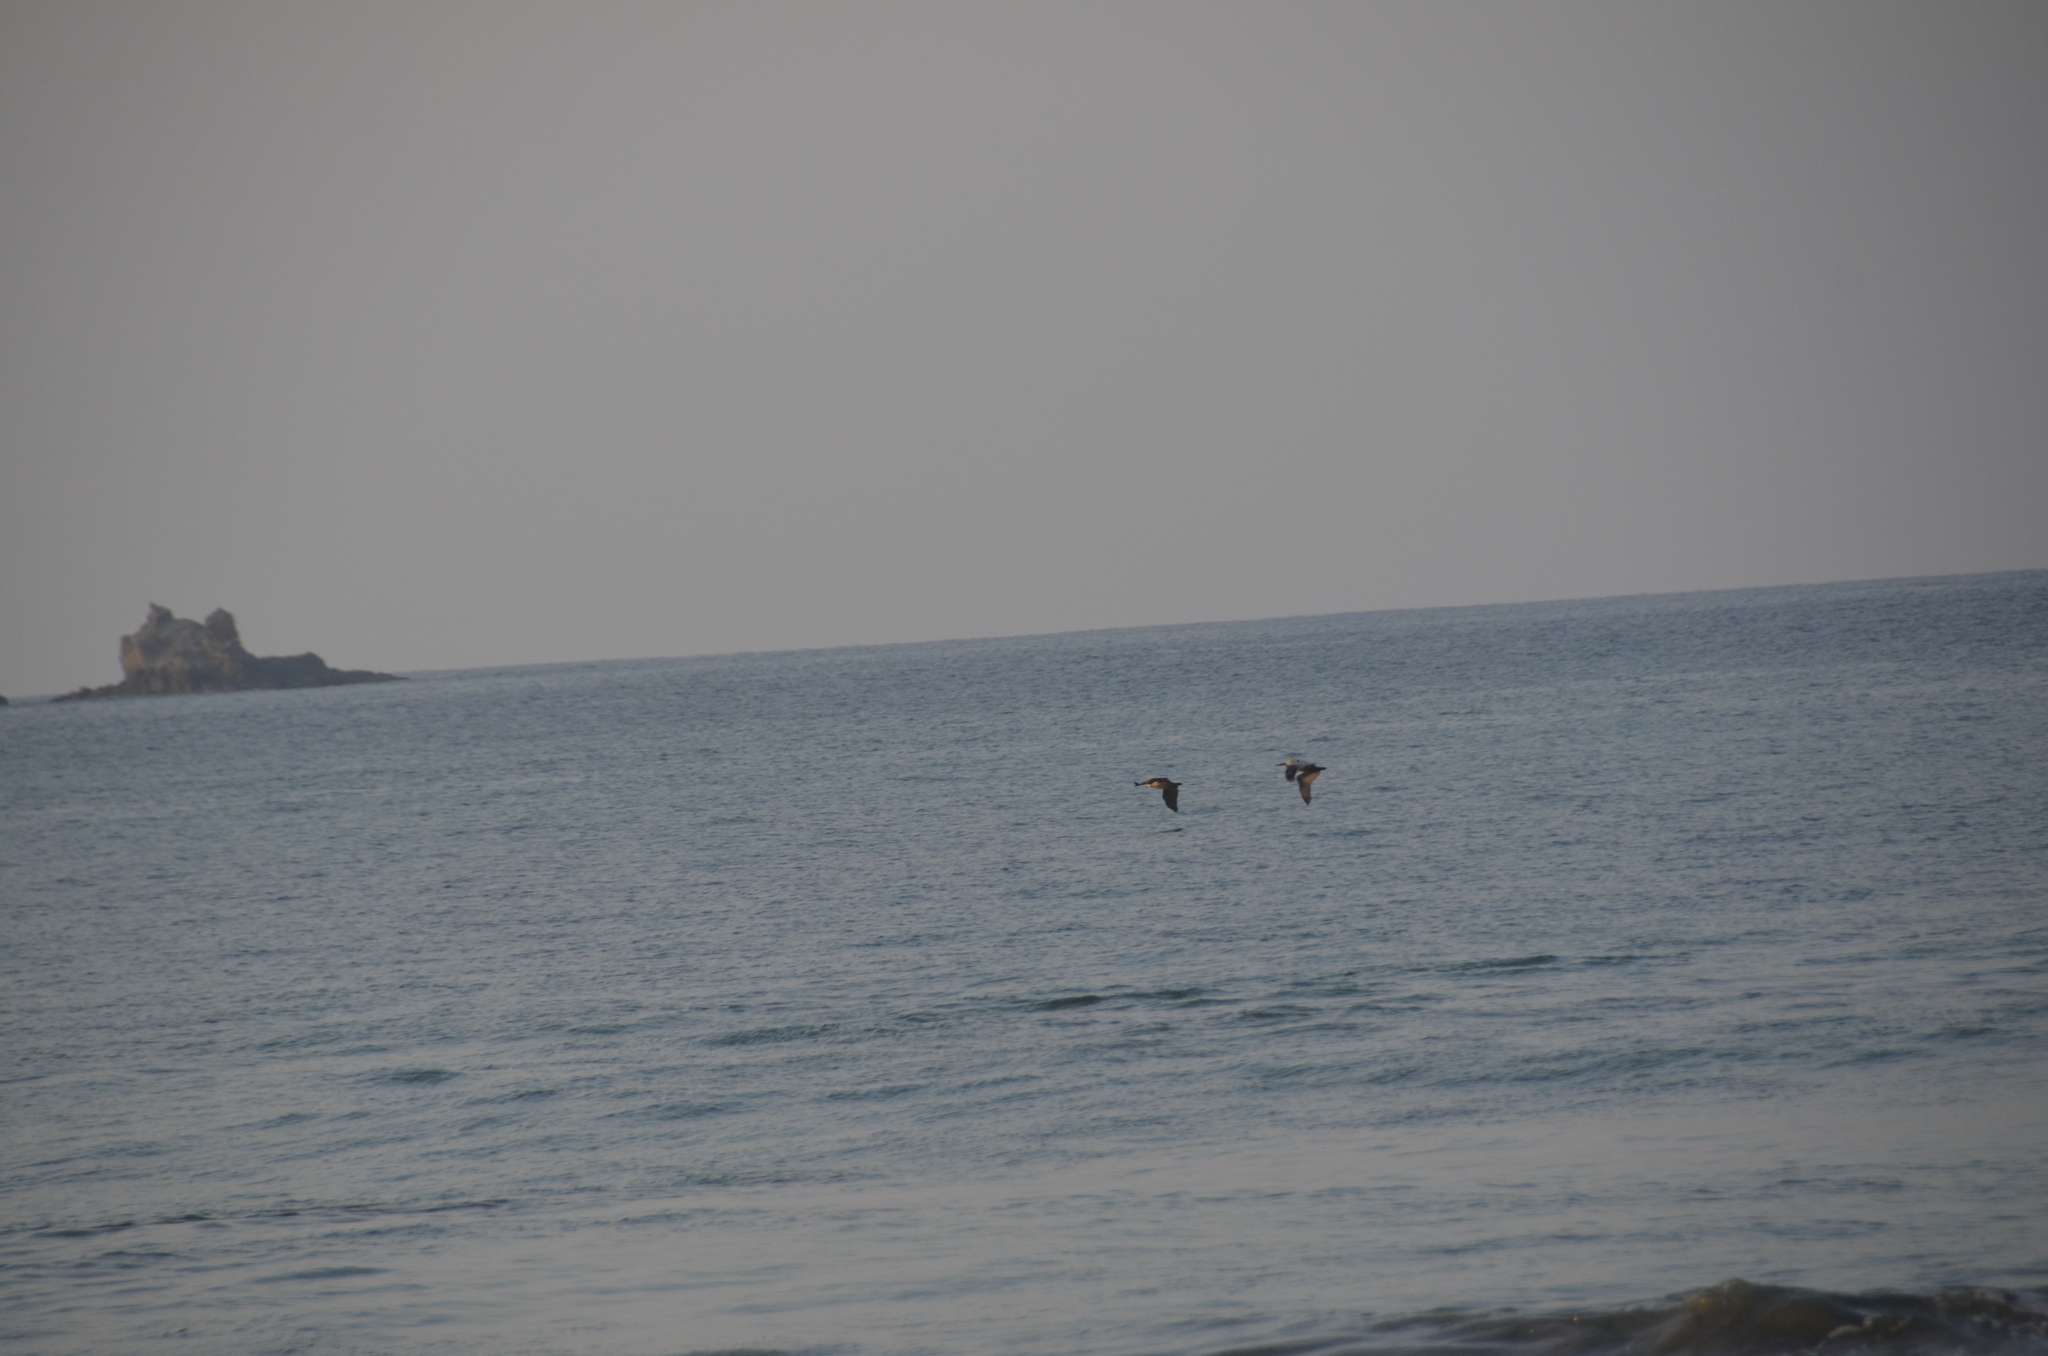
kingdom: Animalia
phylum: Chordata
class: Aves
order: Pelecaniformes
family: Pelecanidae
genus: Pelecanus
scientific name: Pelecanus occidentalis
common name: Brown pelican
